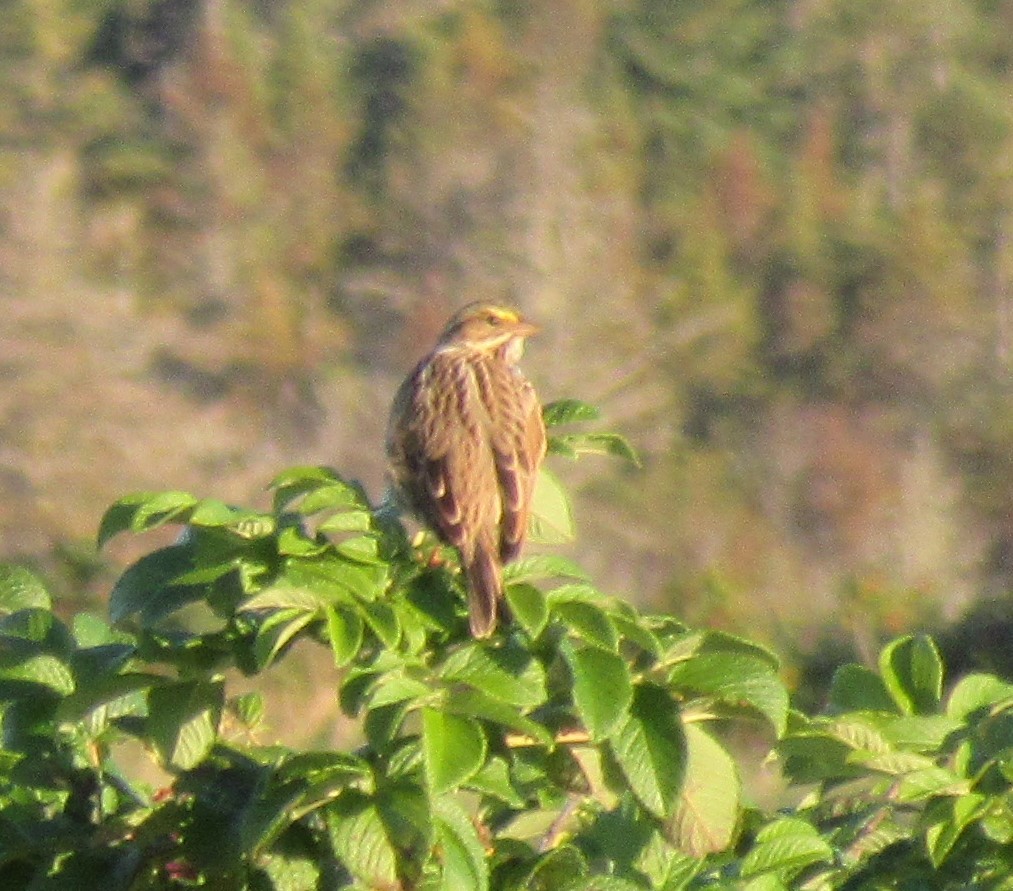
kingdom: Animalia
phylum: Chordata
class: Aves
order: Passeriformes
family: Passerellidae
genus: Passerculus
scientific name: Passerculus sandwichensis
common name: Savannah sparrow
